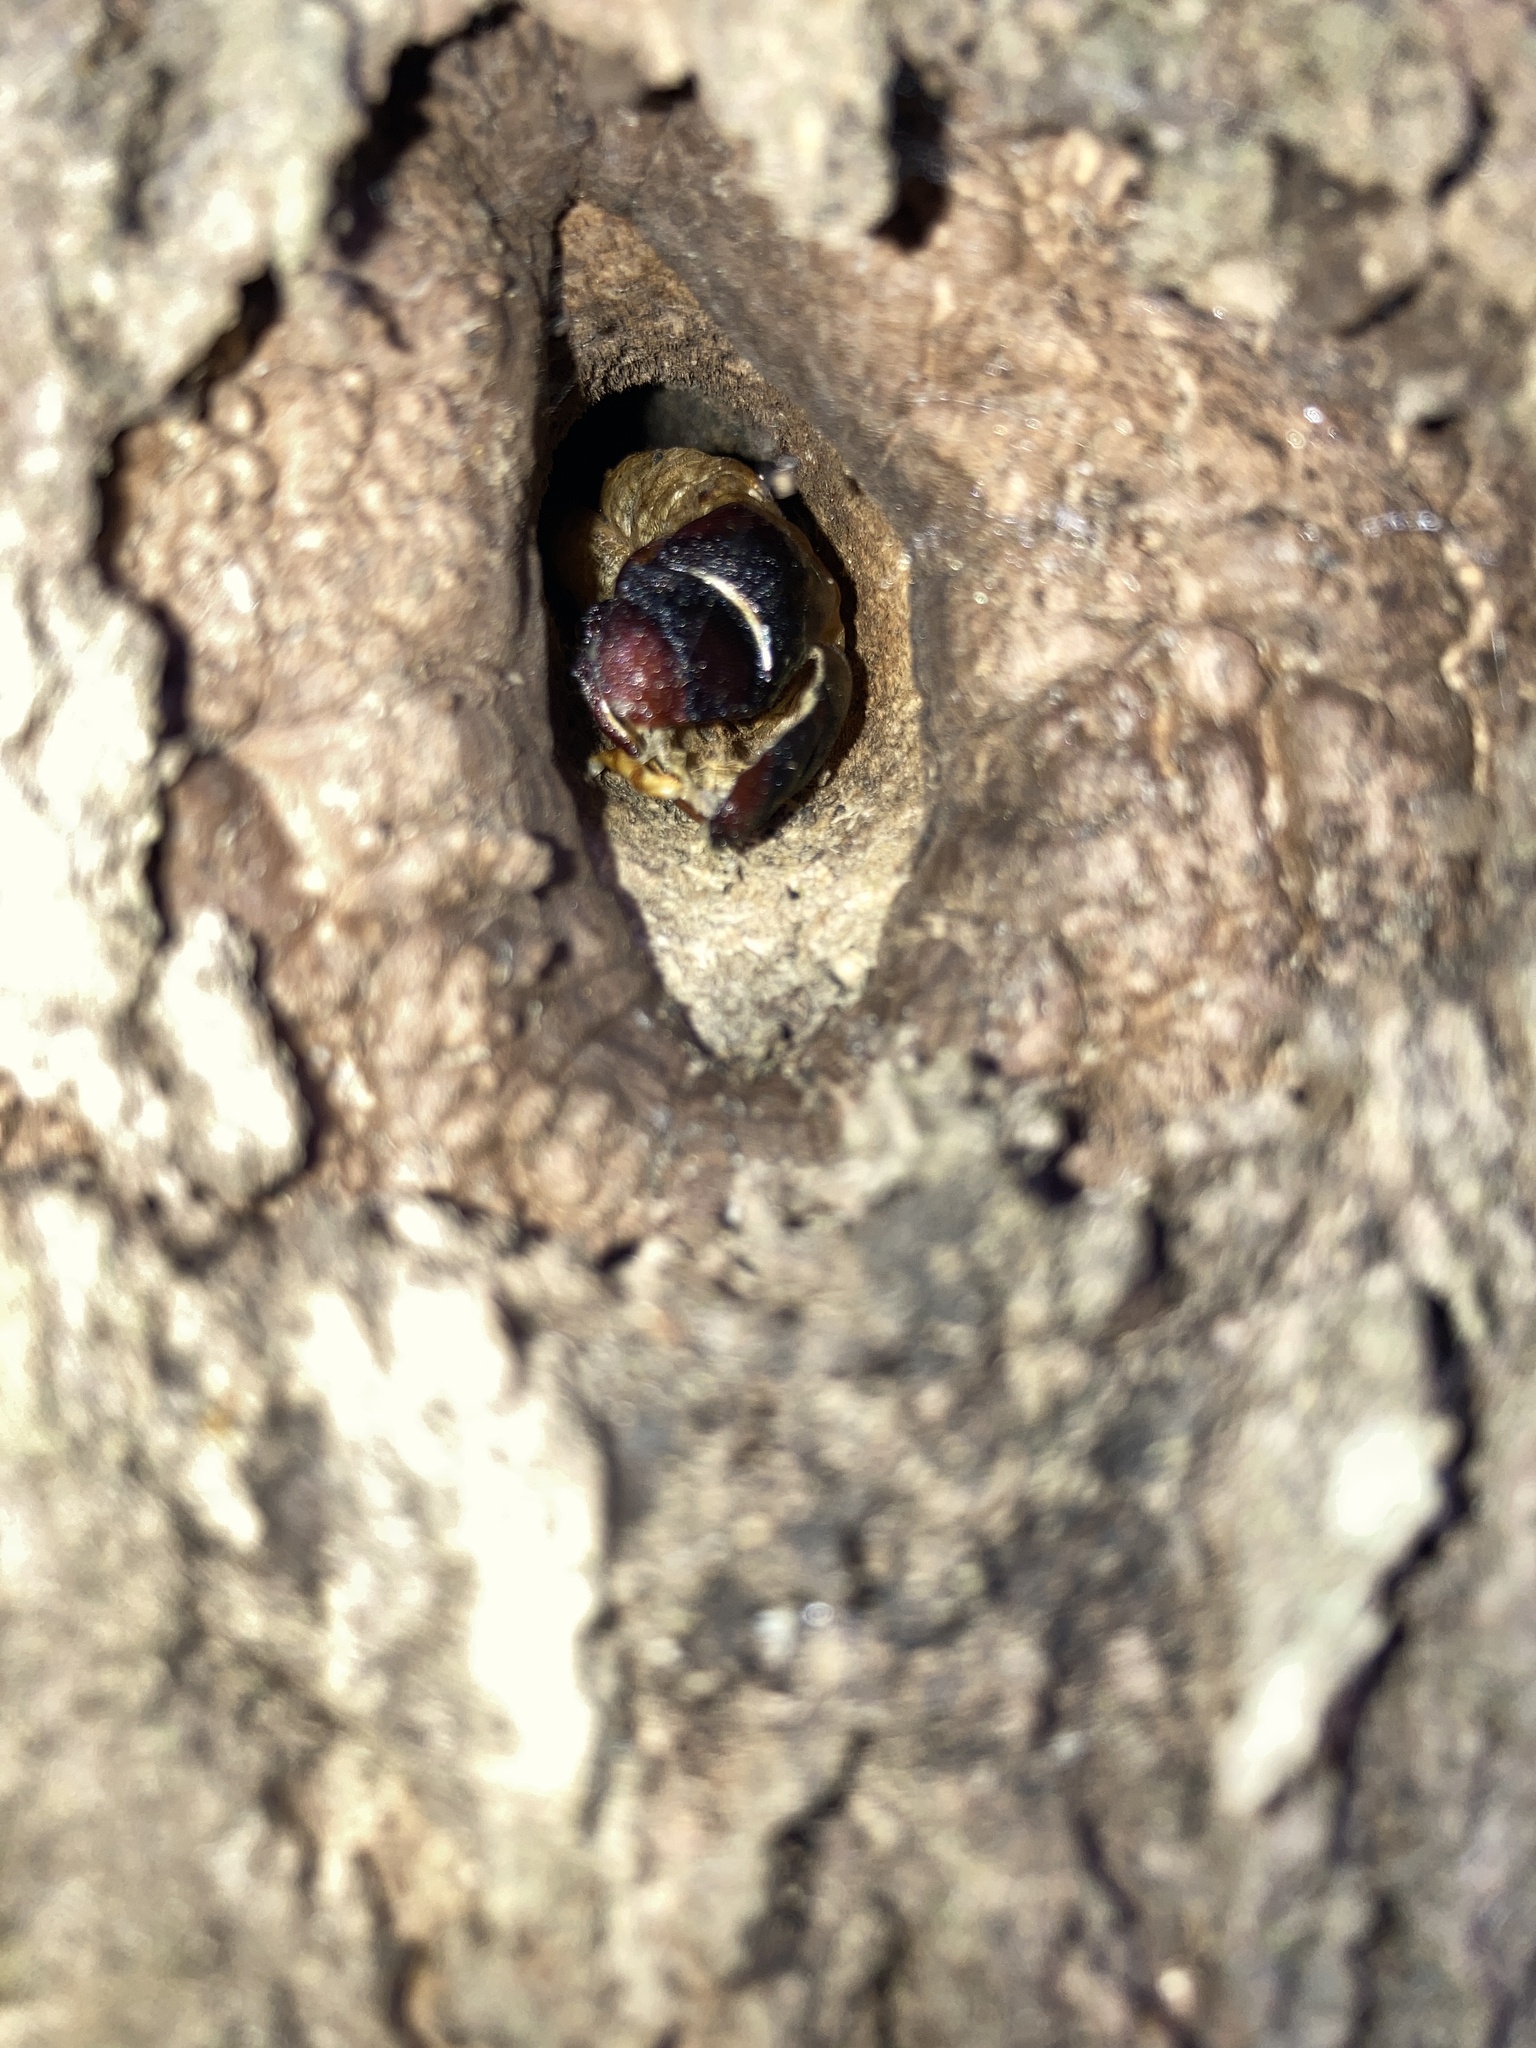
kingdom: Animalia
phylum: Arthropoda
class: Insecta
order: Lepidoptera
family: Hepialidae
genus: Aenetus
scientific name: Aenetus virescens
